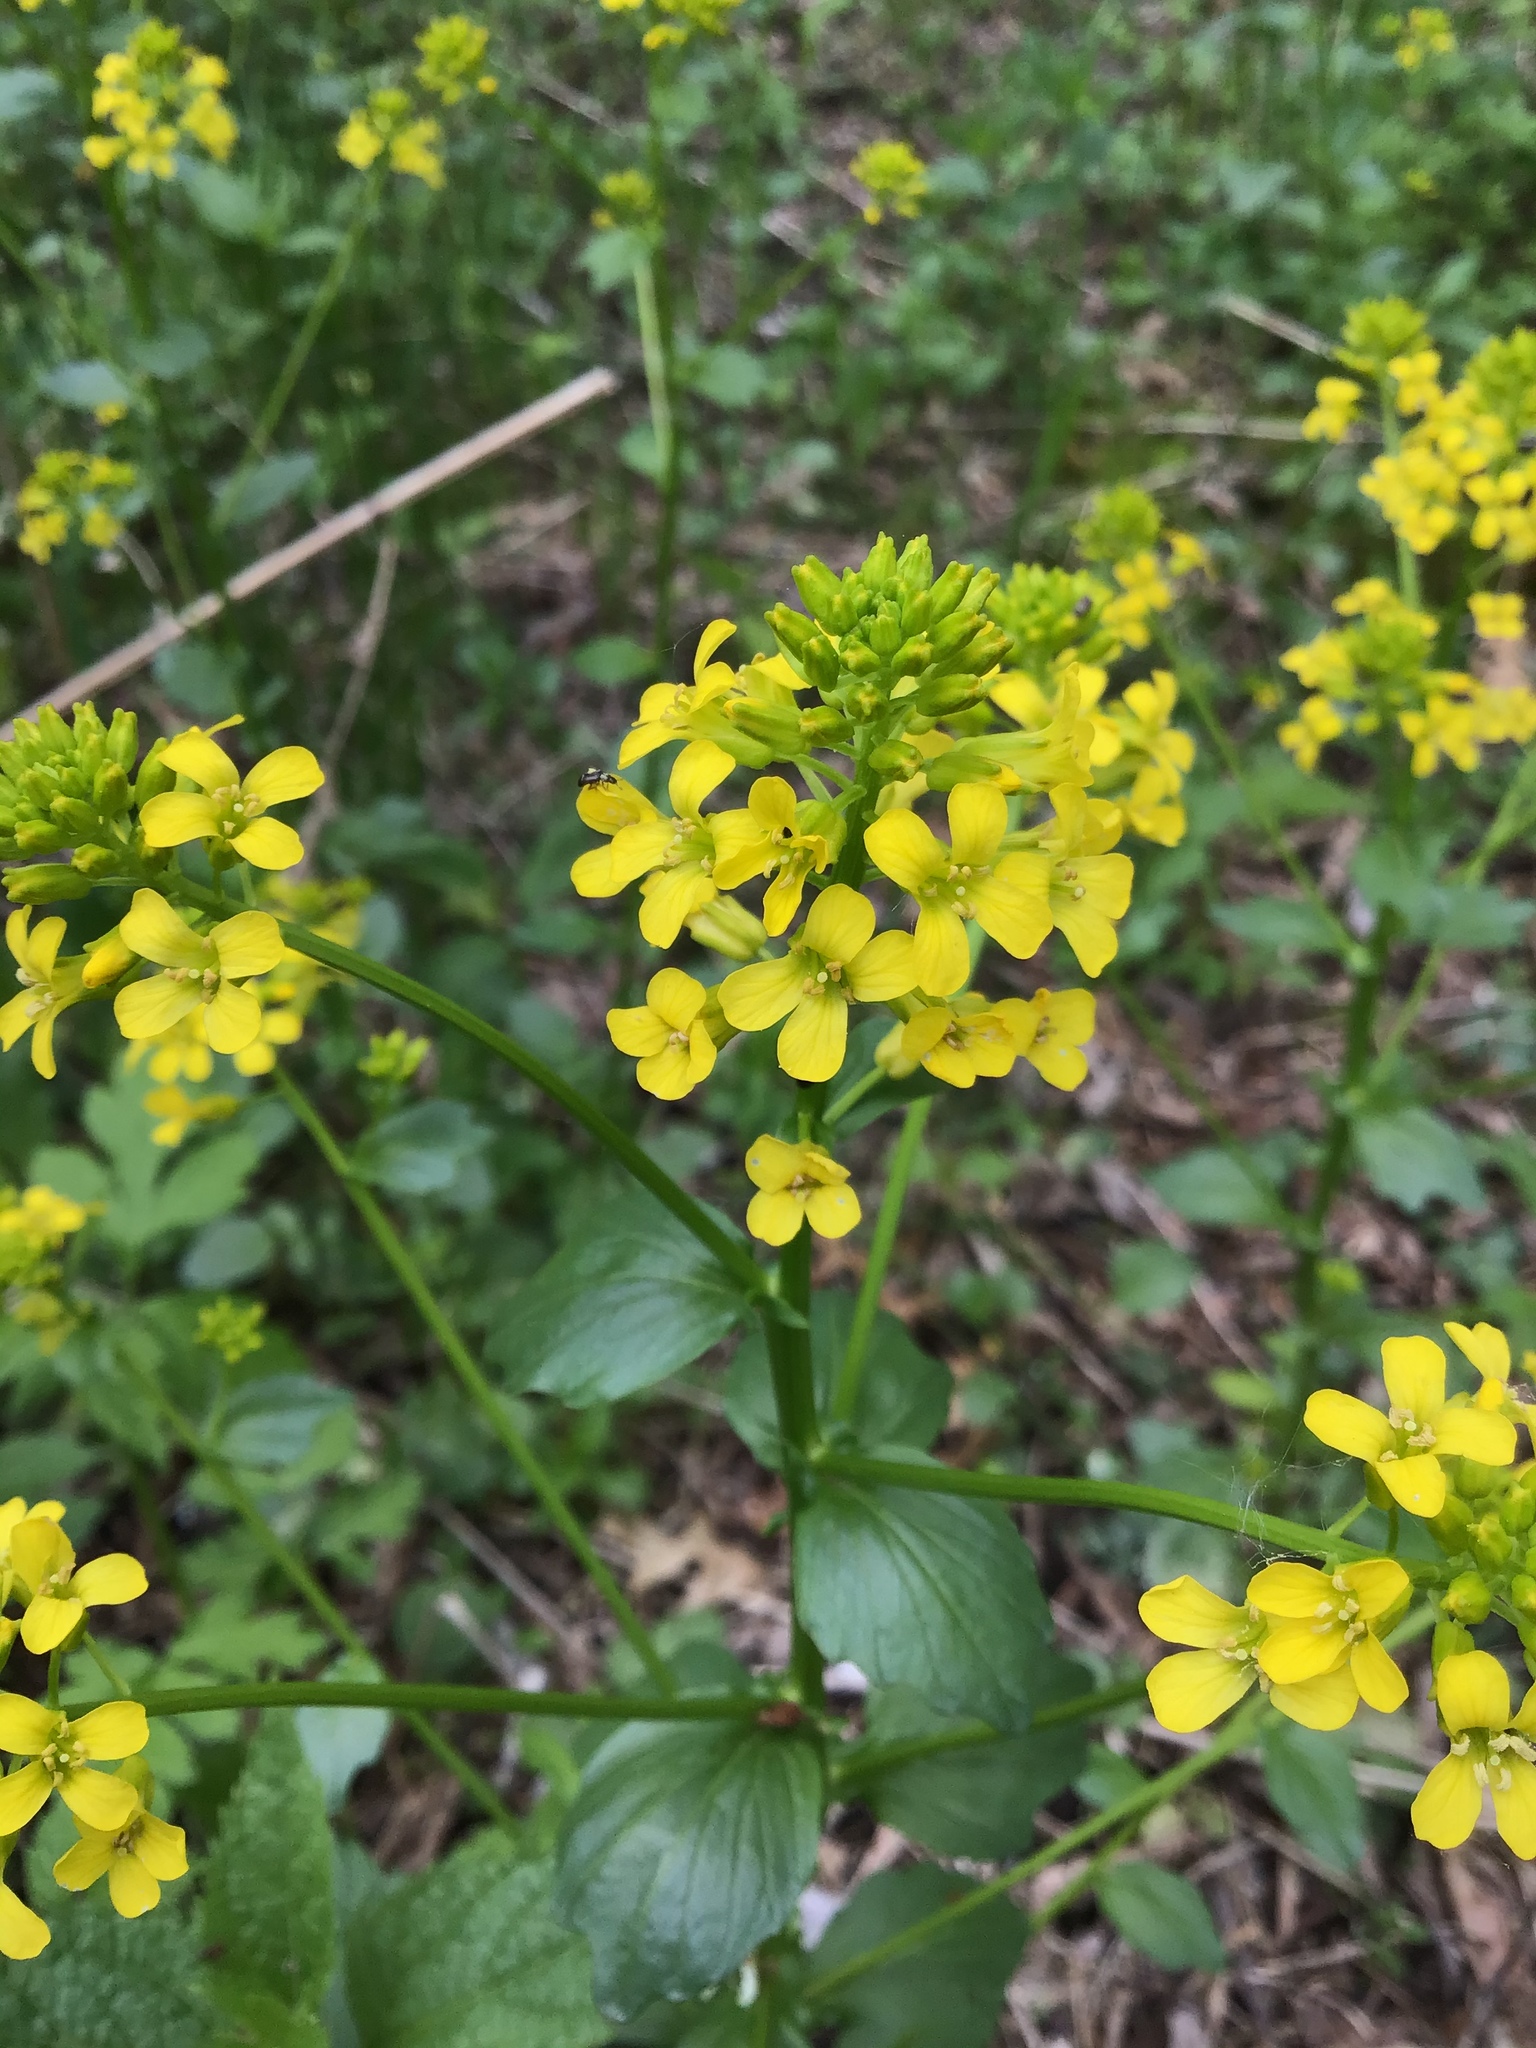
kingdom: Plantae
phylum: Tracheophyta
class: Magnoliopsida
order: Brassicales
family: Brassicaceae
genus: Barbarea
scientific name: Barbarea vulgaris
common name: Cressy-greens
